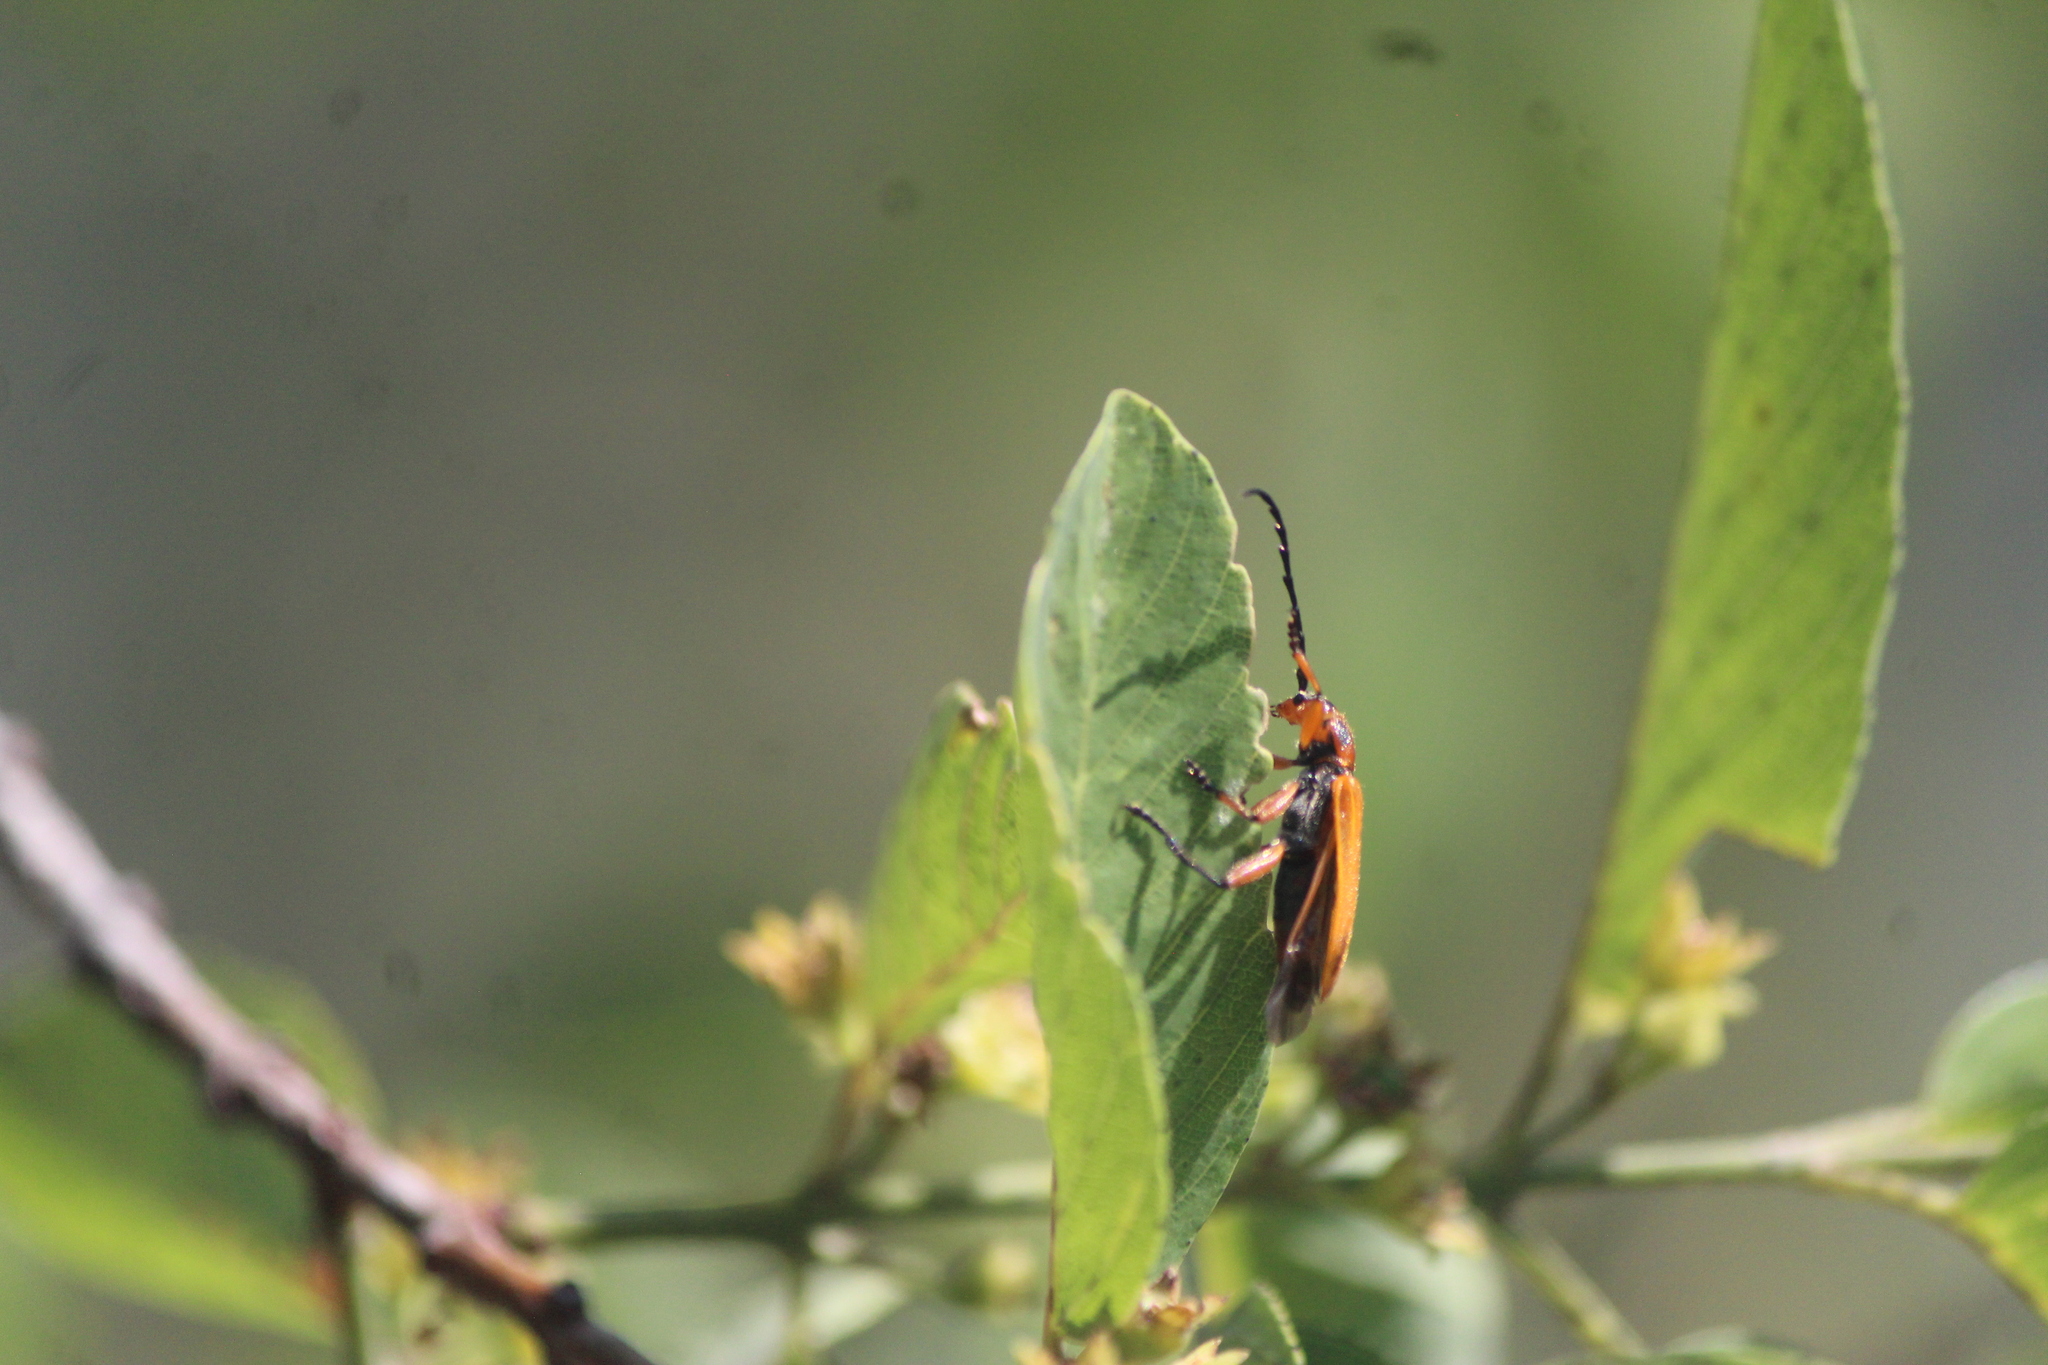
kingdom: Animalia
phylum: Arthropoda
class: Insecta
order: Coleoptera
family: Cerambycidae
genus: Elytroleptus
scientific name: Elytroleptus luteus
